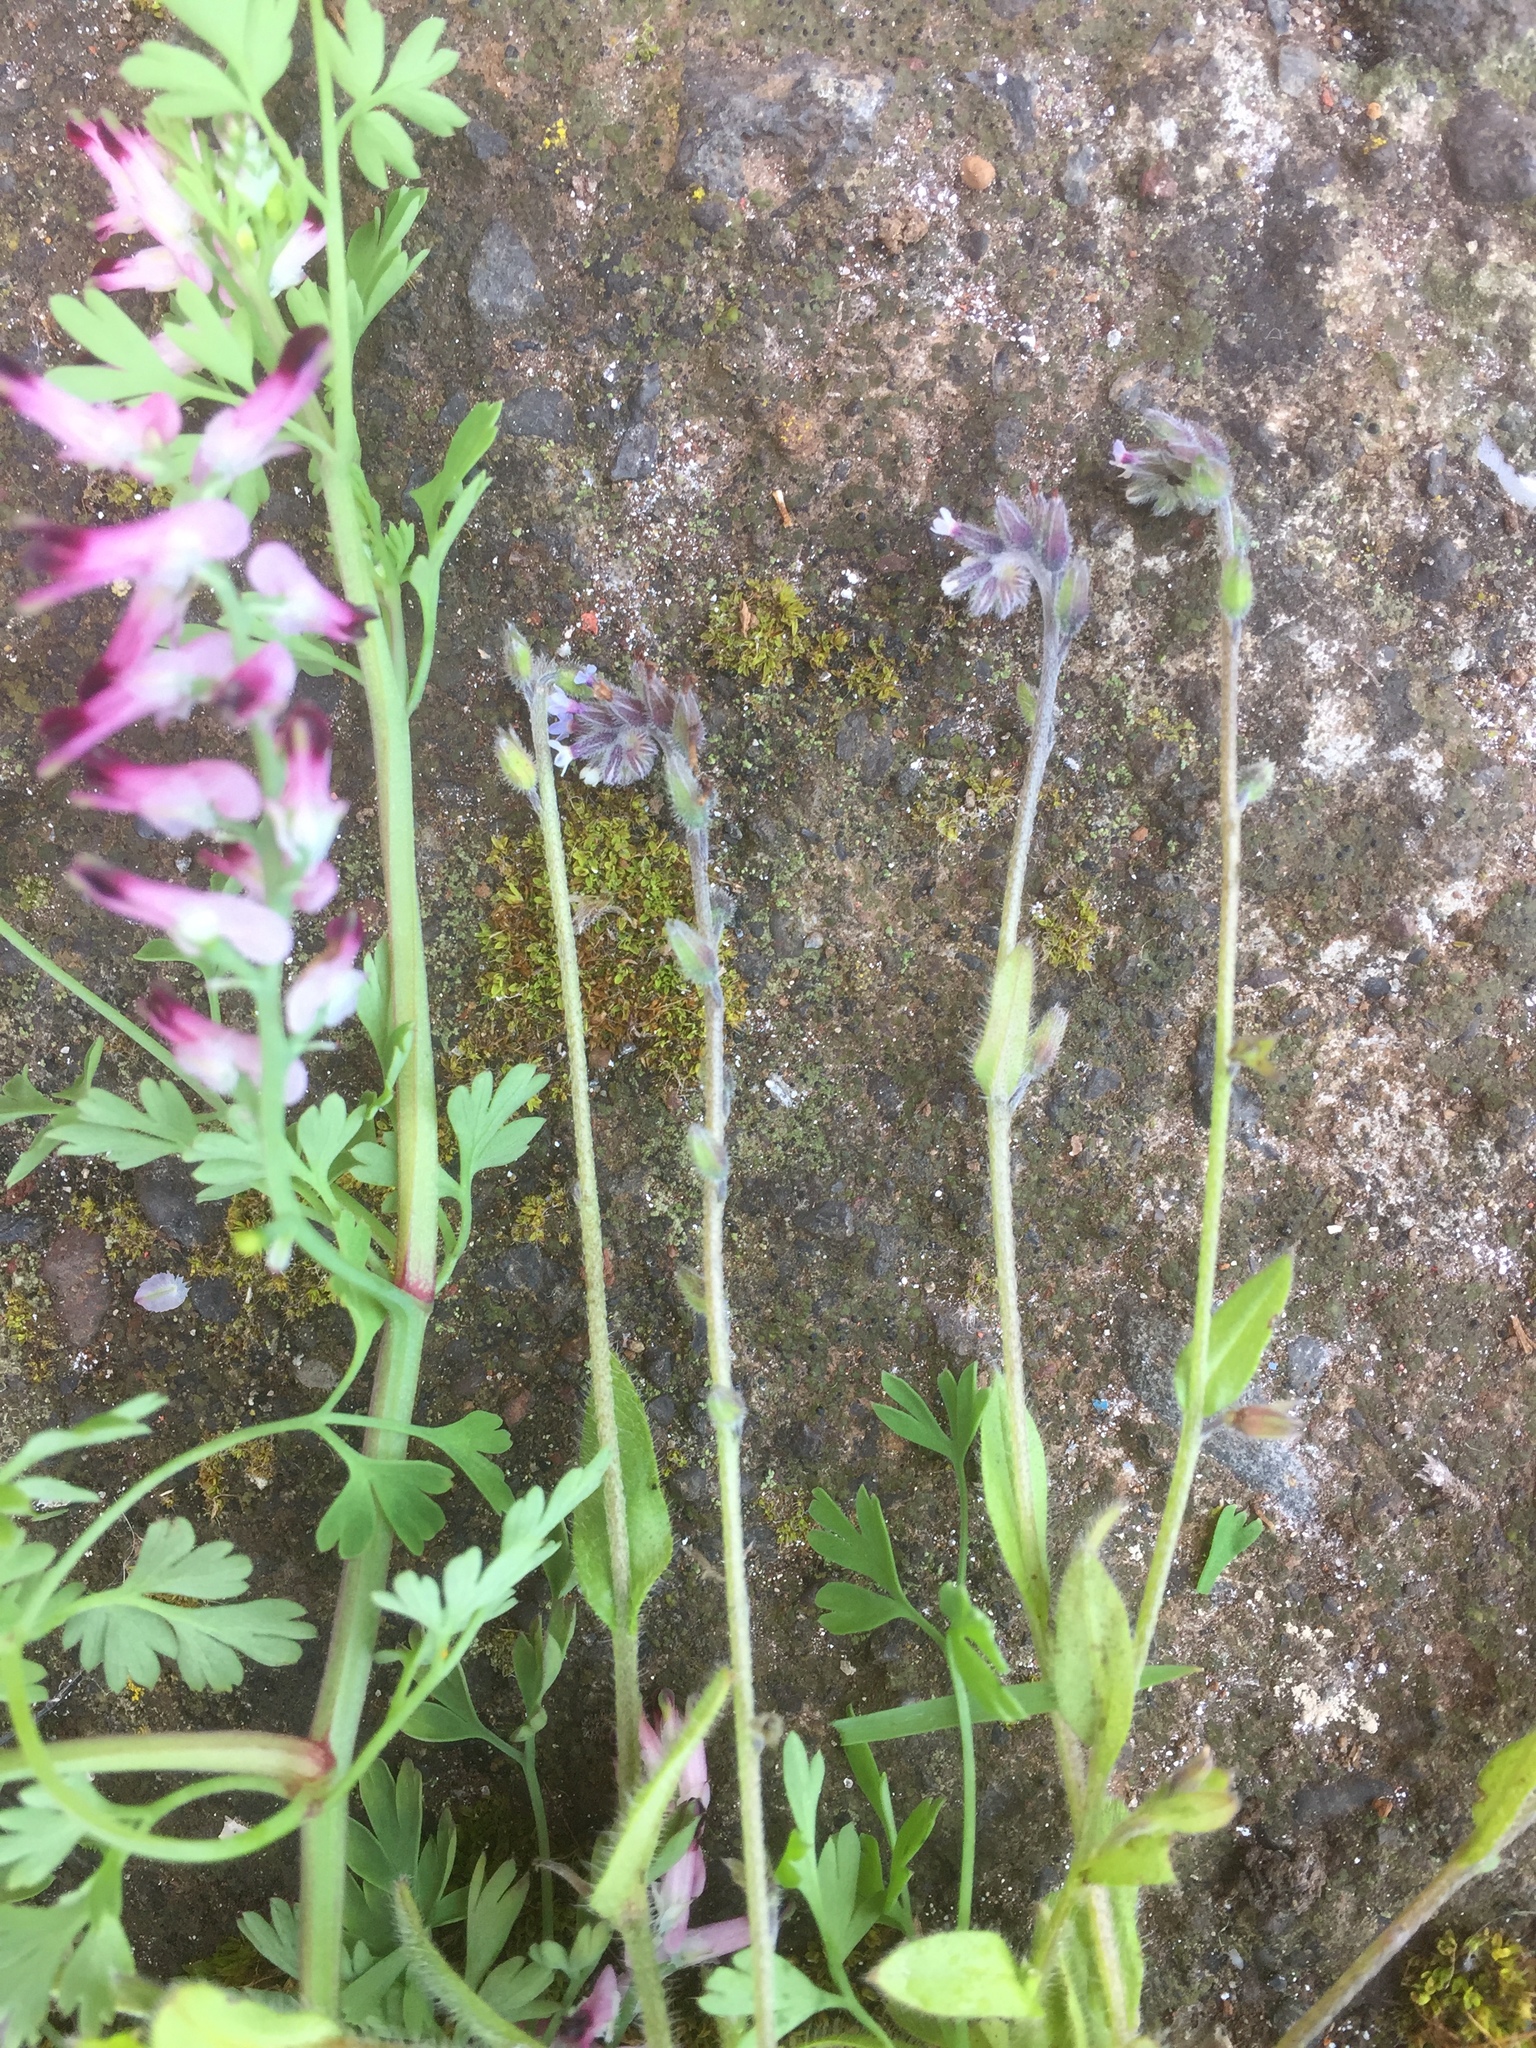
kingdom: Plantae
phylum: Tracheophyta
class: Magnoliopsida
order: Boraginales
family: Boraginaceae
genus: Myosotis
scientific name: Myosotis discolor
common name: Changing forget-me-not
